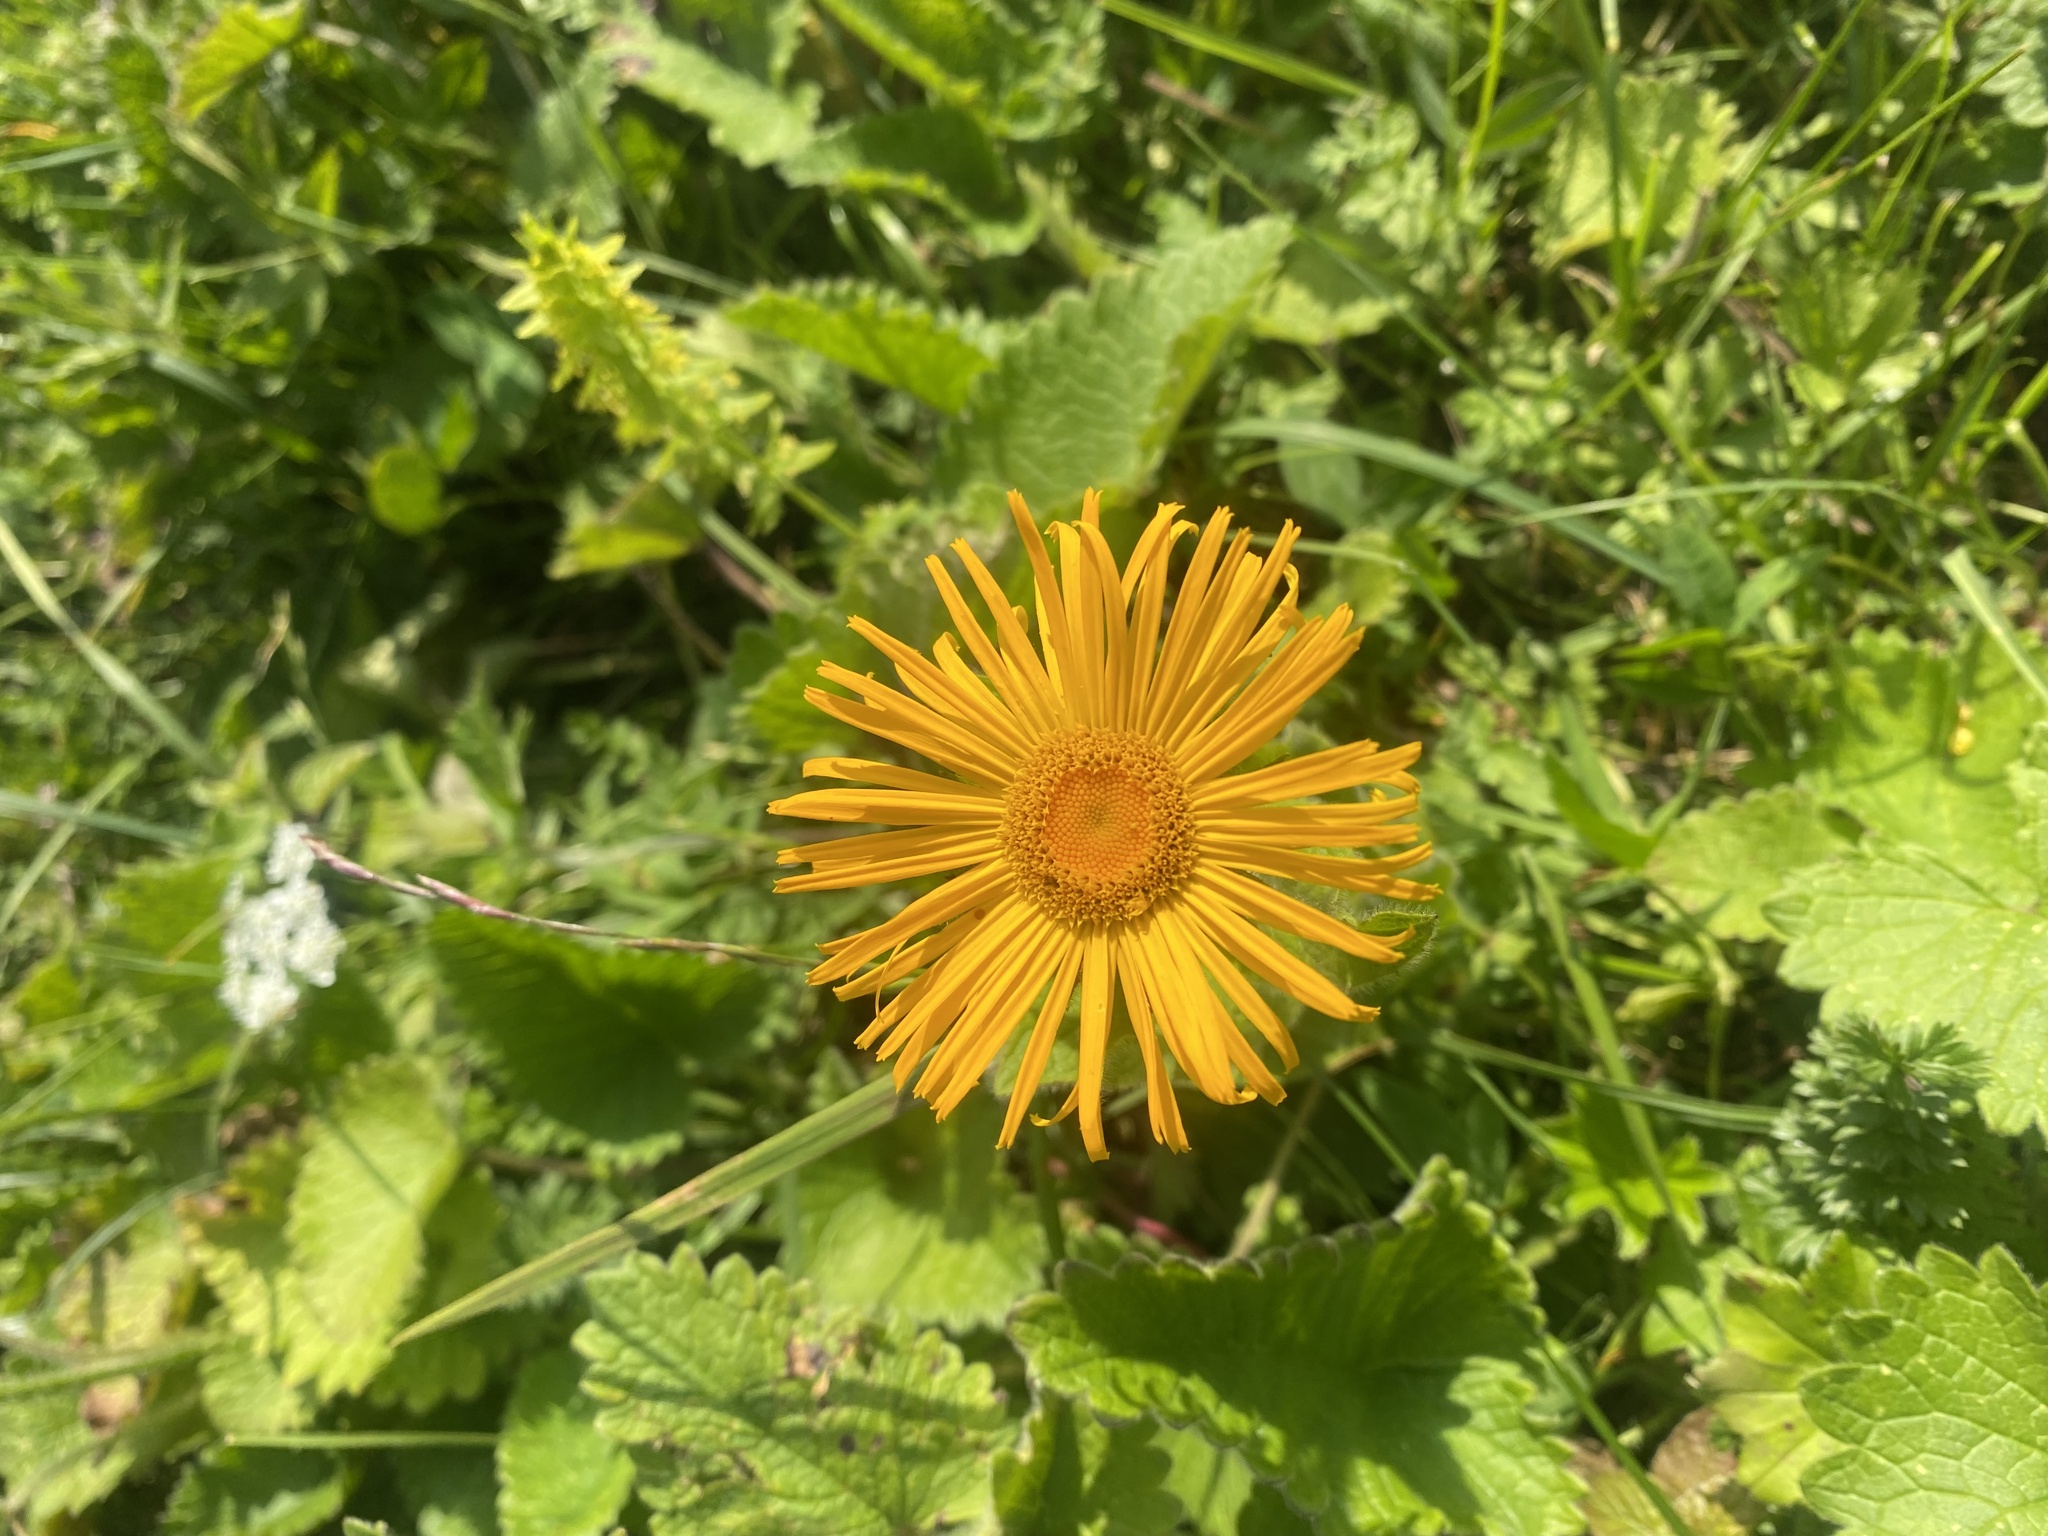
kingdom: Plantae
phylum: Tracheophyta
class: Magnoliopsida
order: Asterales
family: Asteraceae
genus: Pentanema
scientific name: Pentanema orientale
